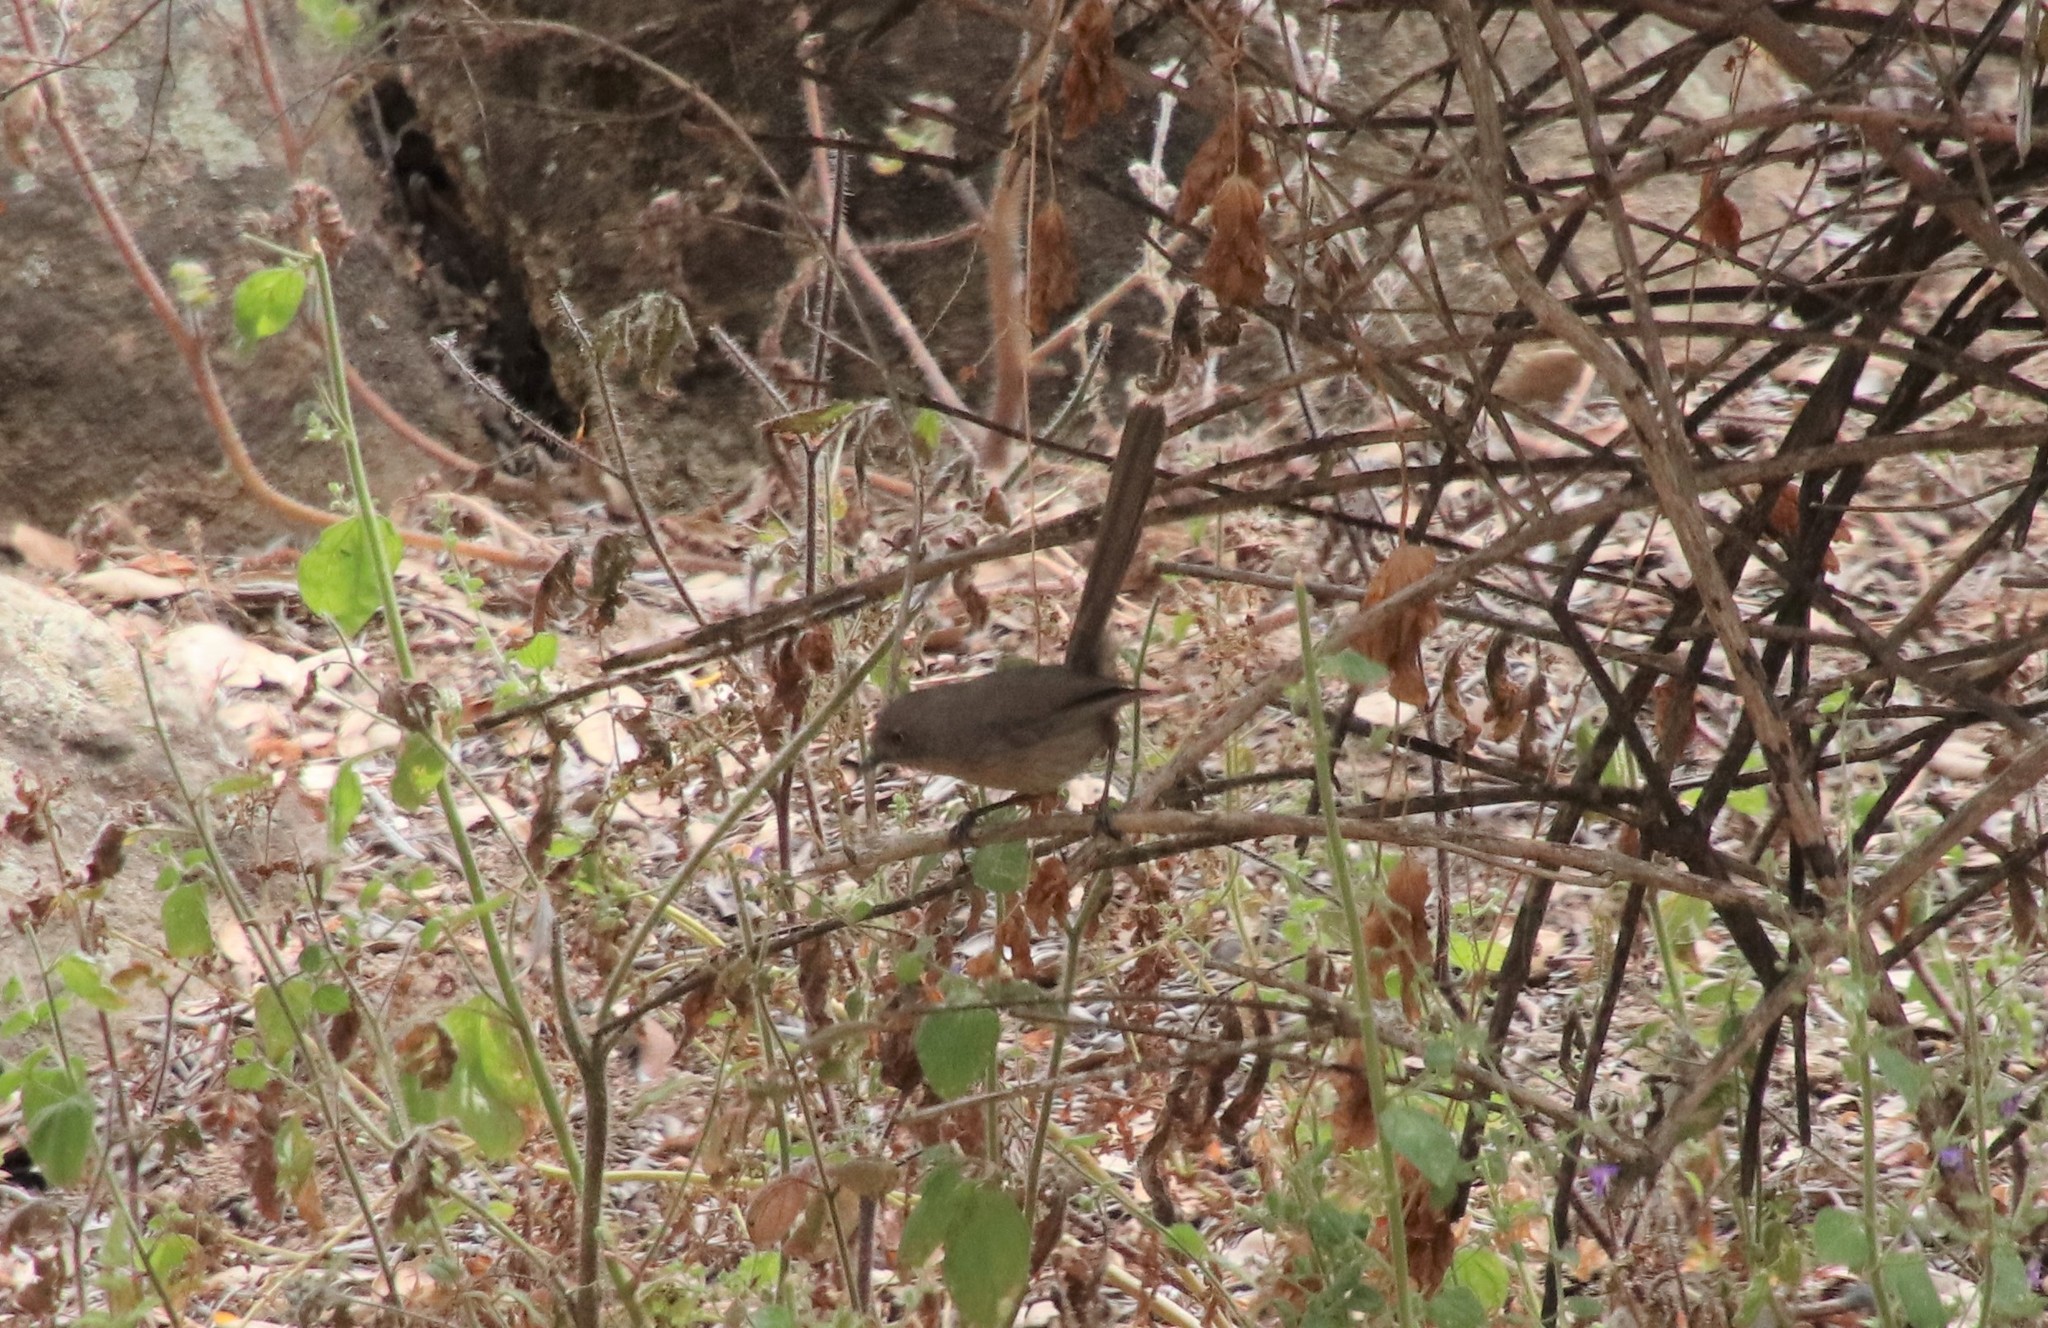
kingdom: Animalia
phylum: Chordata
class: Aves
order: Passeriformes
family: Sylviidae
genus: Chamaea
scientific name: Chamaea fasciata
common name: Wrentit
